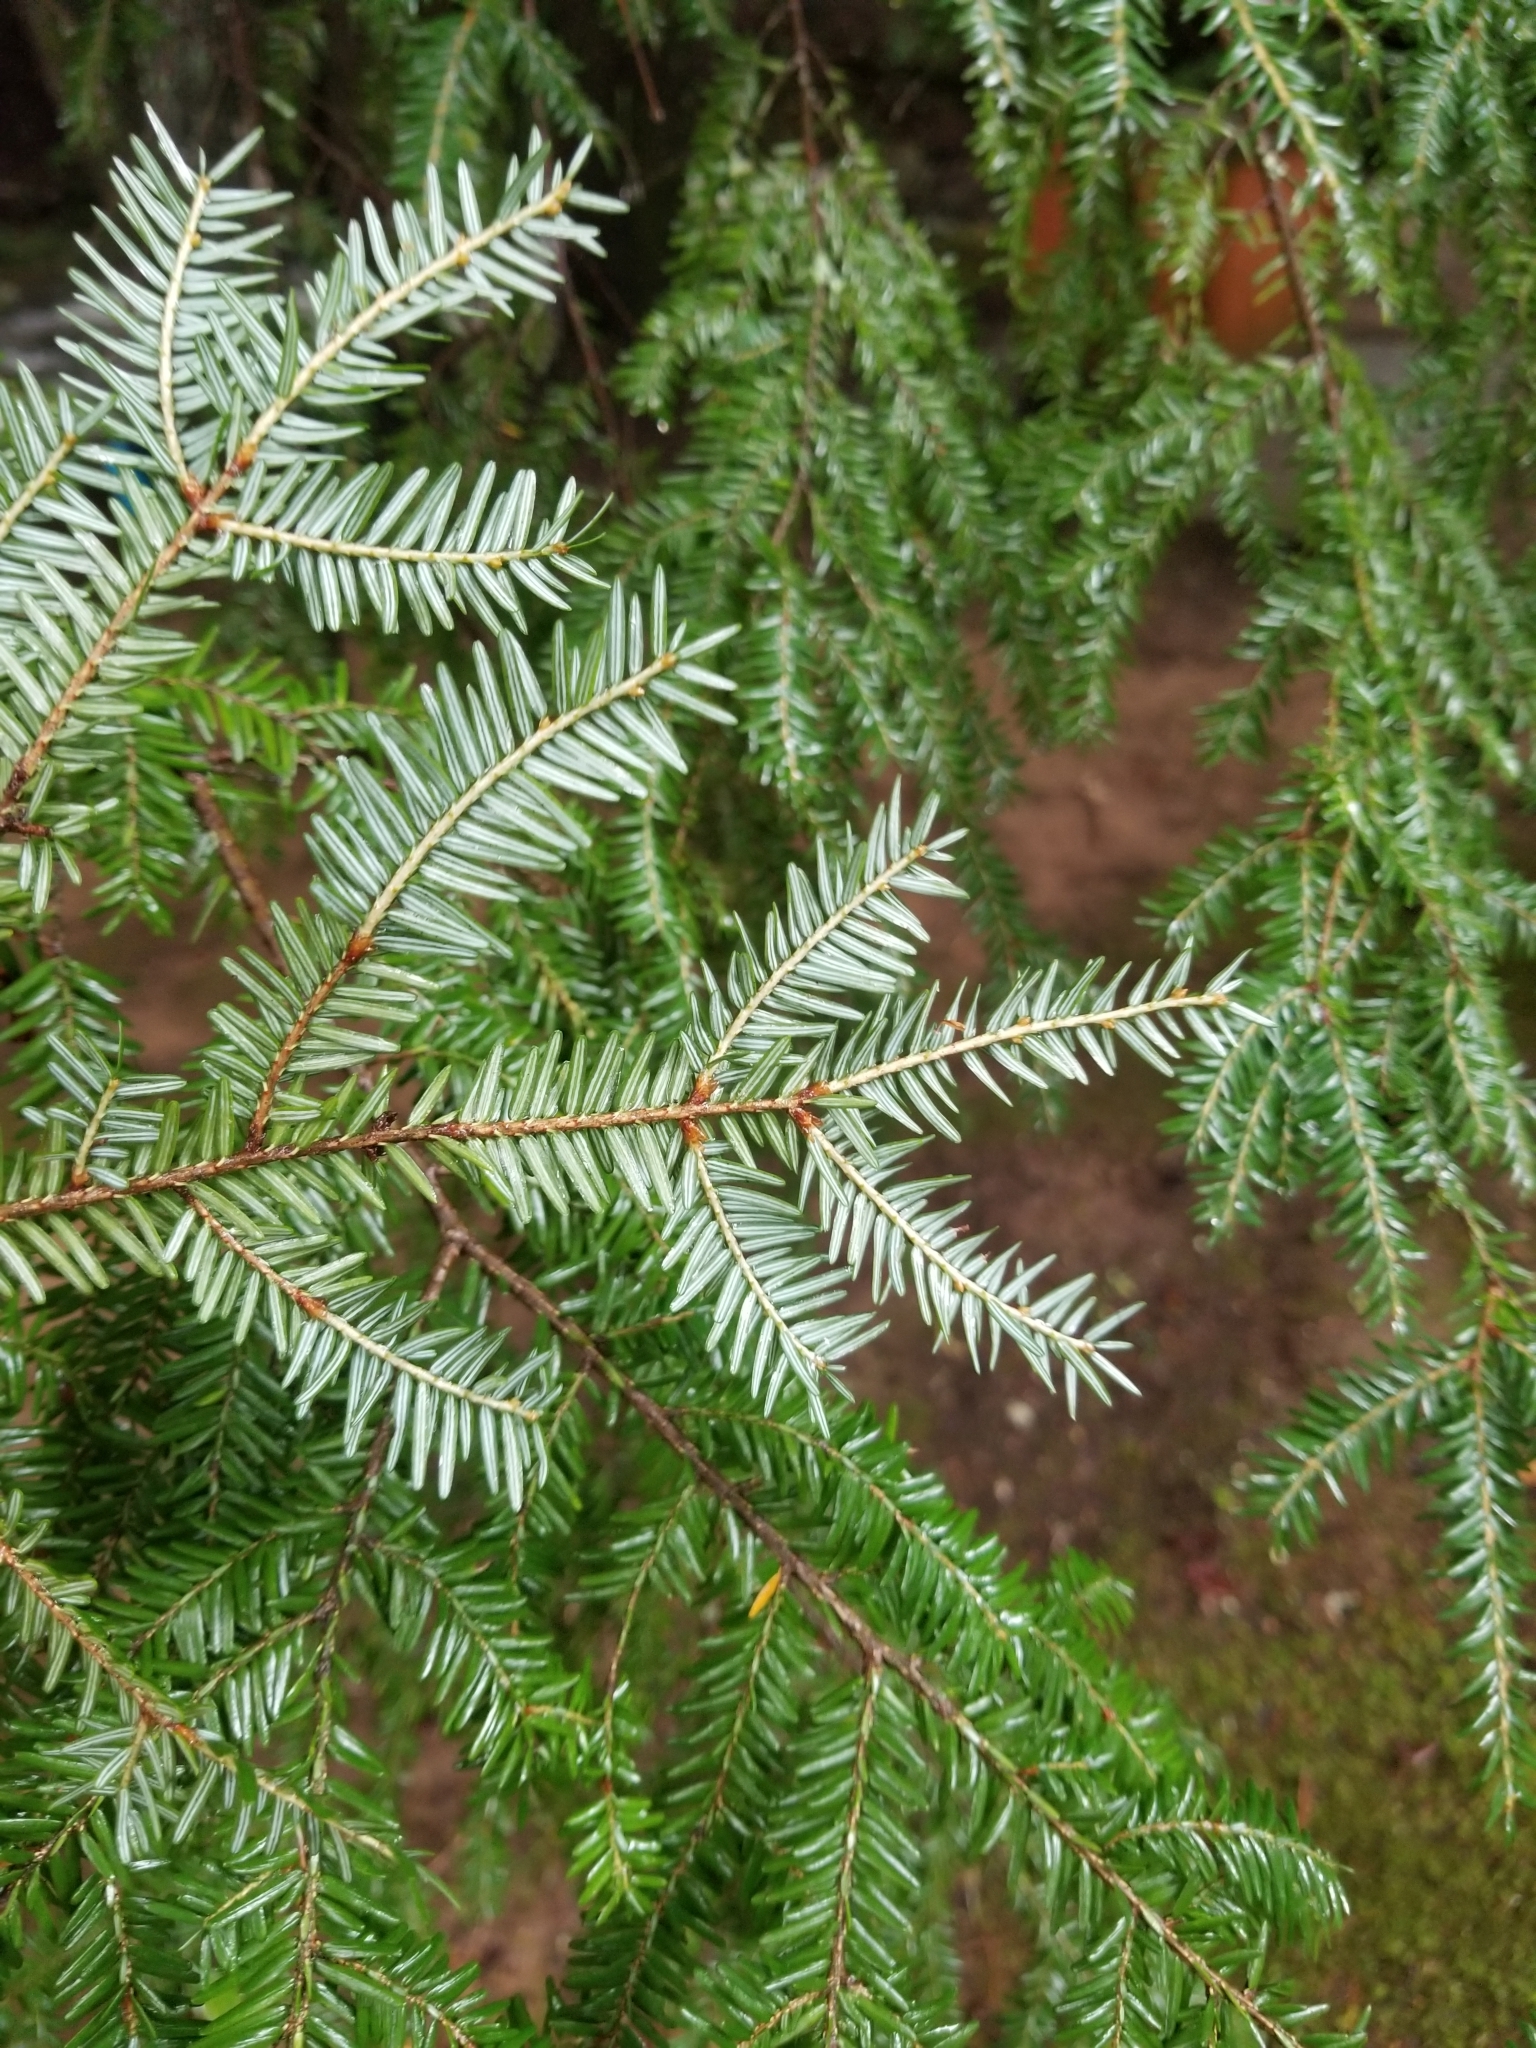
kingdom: Plantae
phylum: Tracheophyta
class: Pinopsida
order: Pinales
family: Pinaceae
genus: Tsuga
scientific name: Tsuga canadensis
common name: Eastern hemlock
